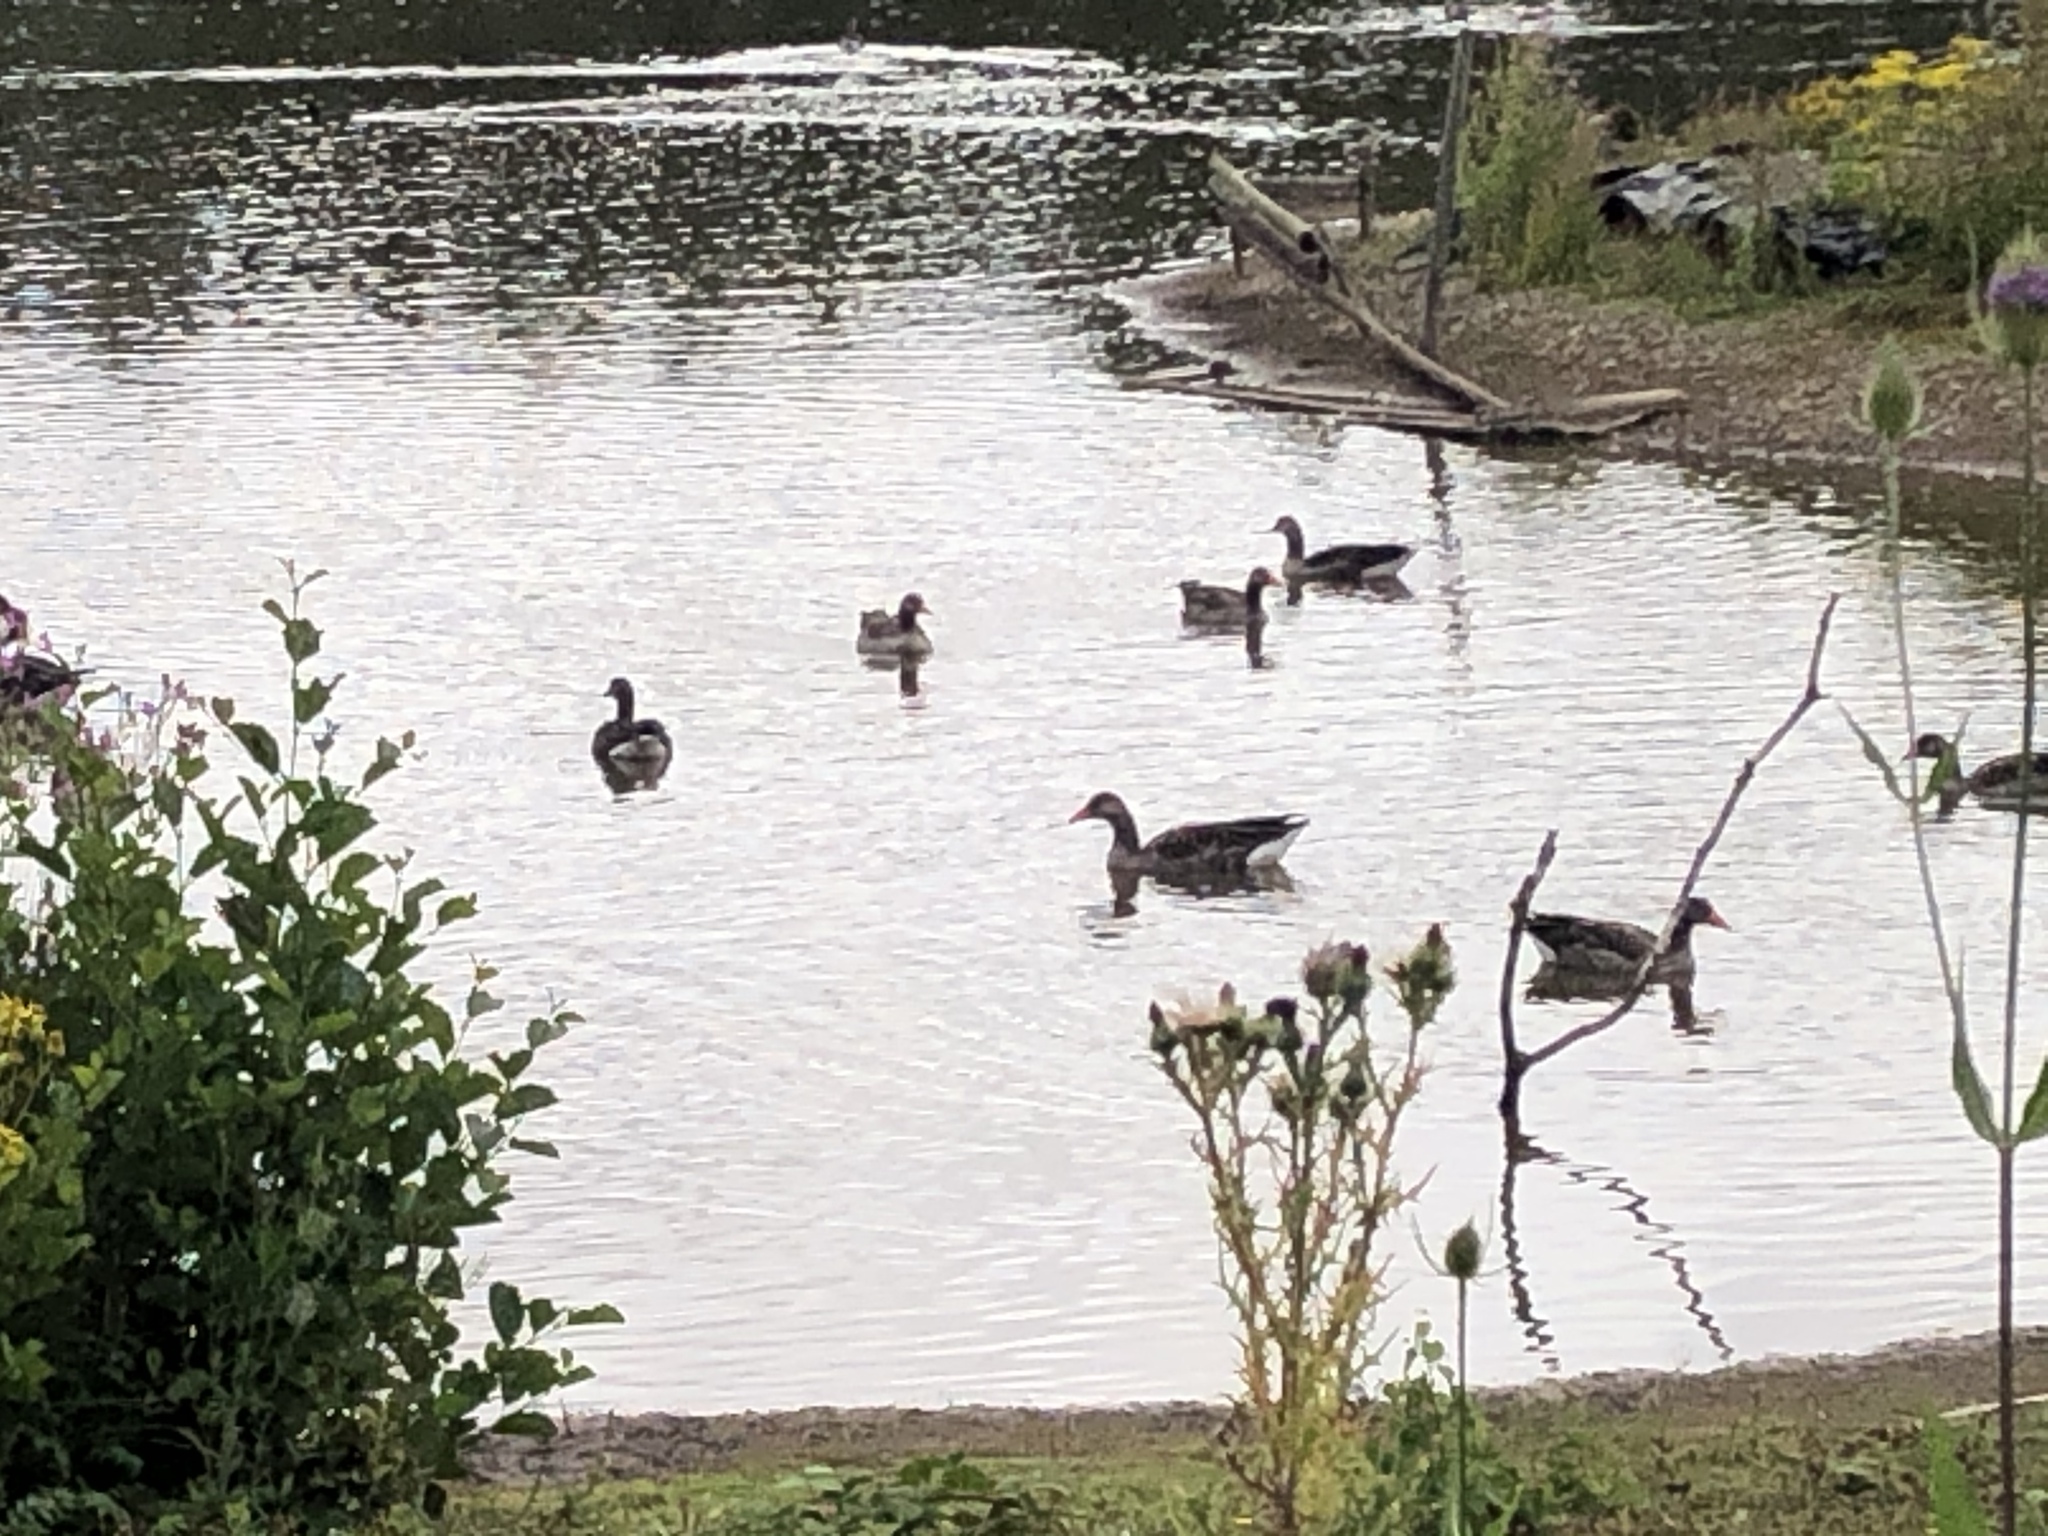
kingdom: Animalia
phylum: Chordata
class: Aves
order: Anseriformes
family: Anatidae
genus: Anser
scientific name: Anser anser
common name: Greylag goose
